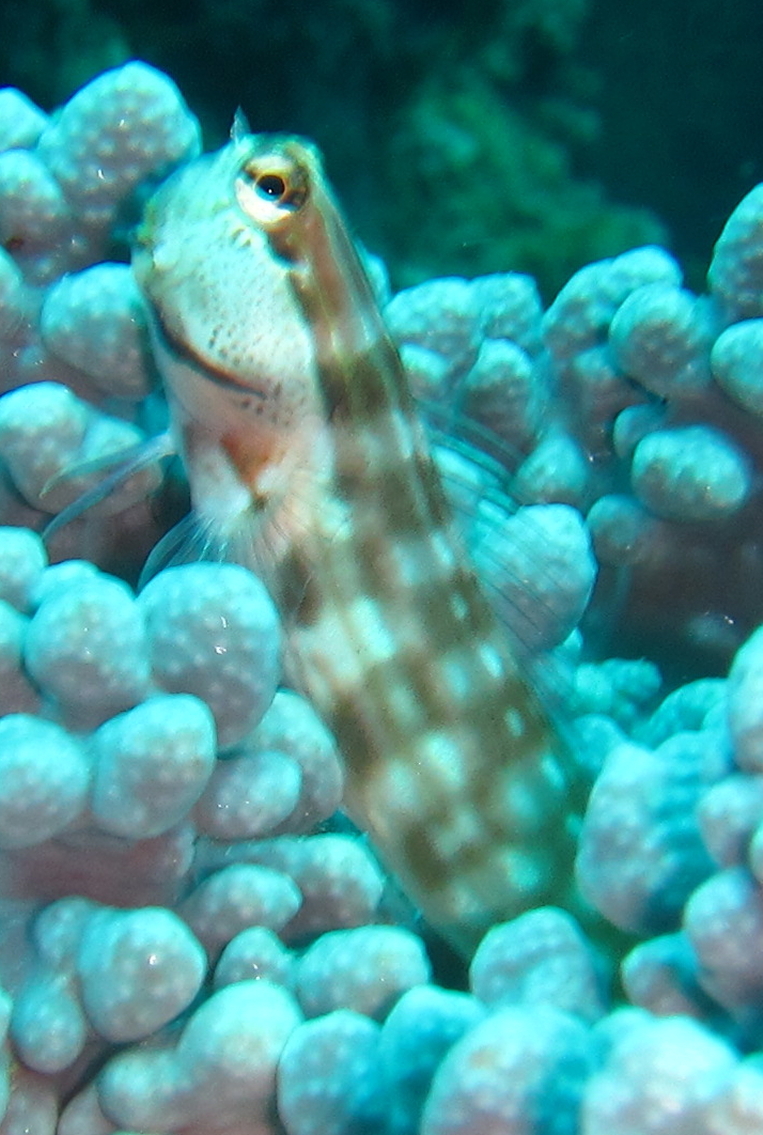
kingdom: Animalia
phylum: Chordata
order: Perciformes
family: Blenniidae
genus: Ecsenius
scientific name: Ecsenius nalolo
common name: Nalolo
